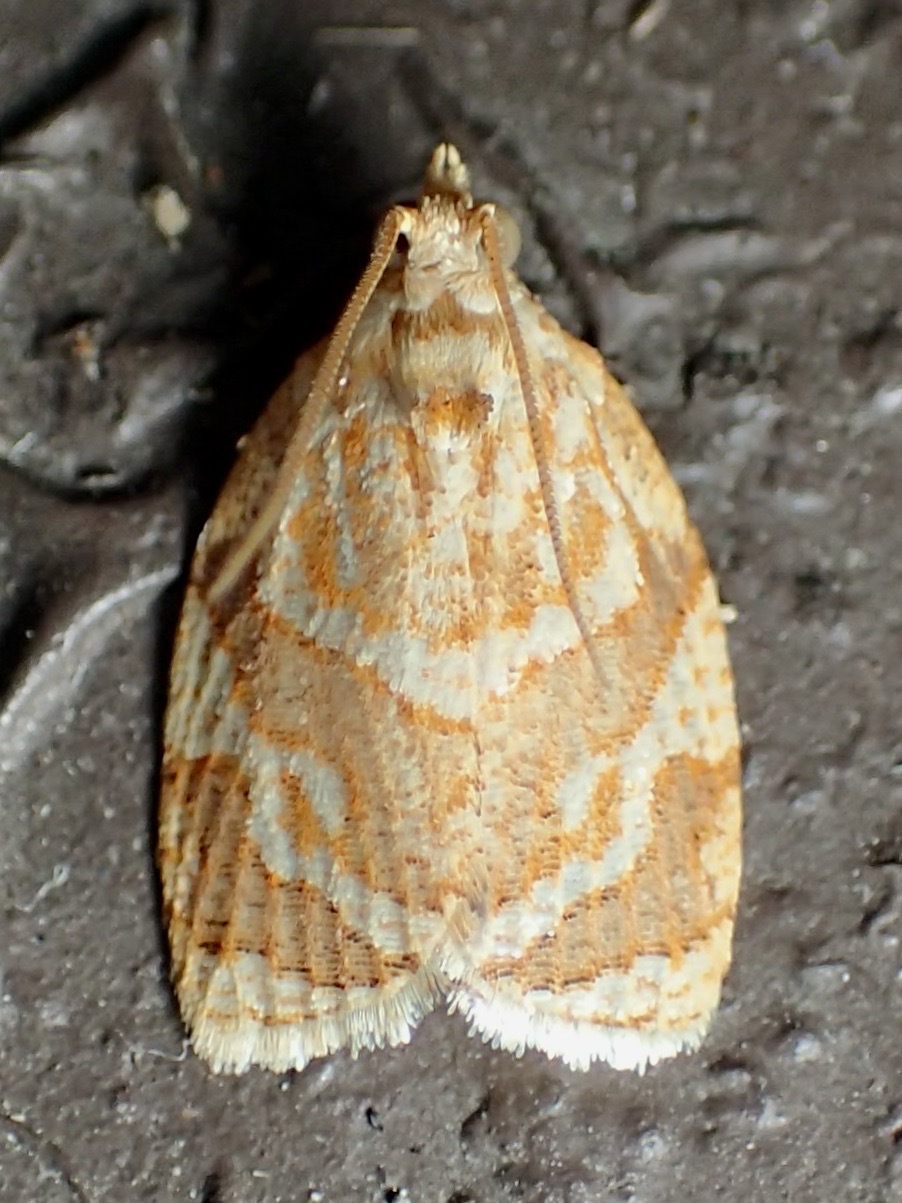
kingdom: Animalia
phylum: Arthropoda
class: Insecta
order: Lepidoptera
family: Tortricidae
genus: Adoxophyes
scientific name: Adoxophyes templana
